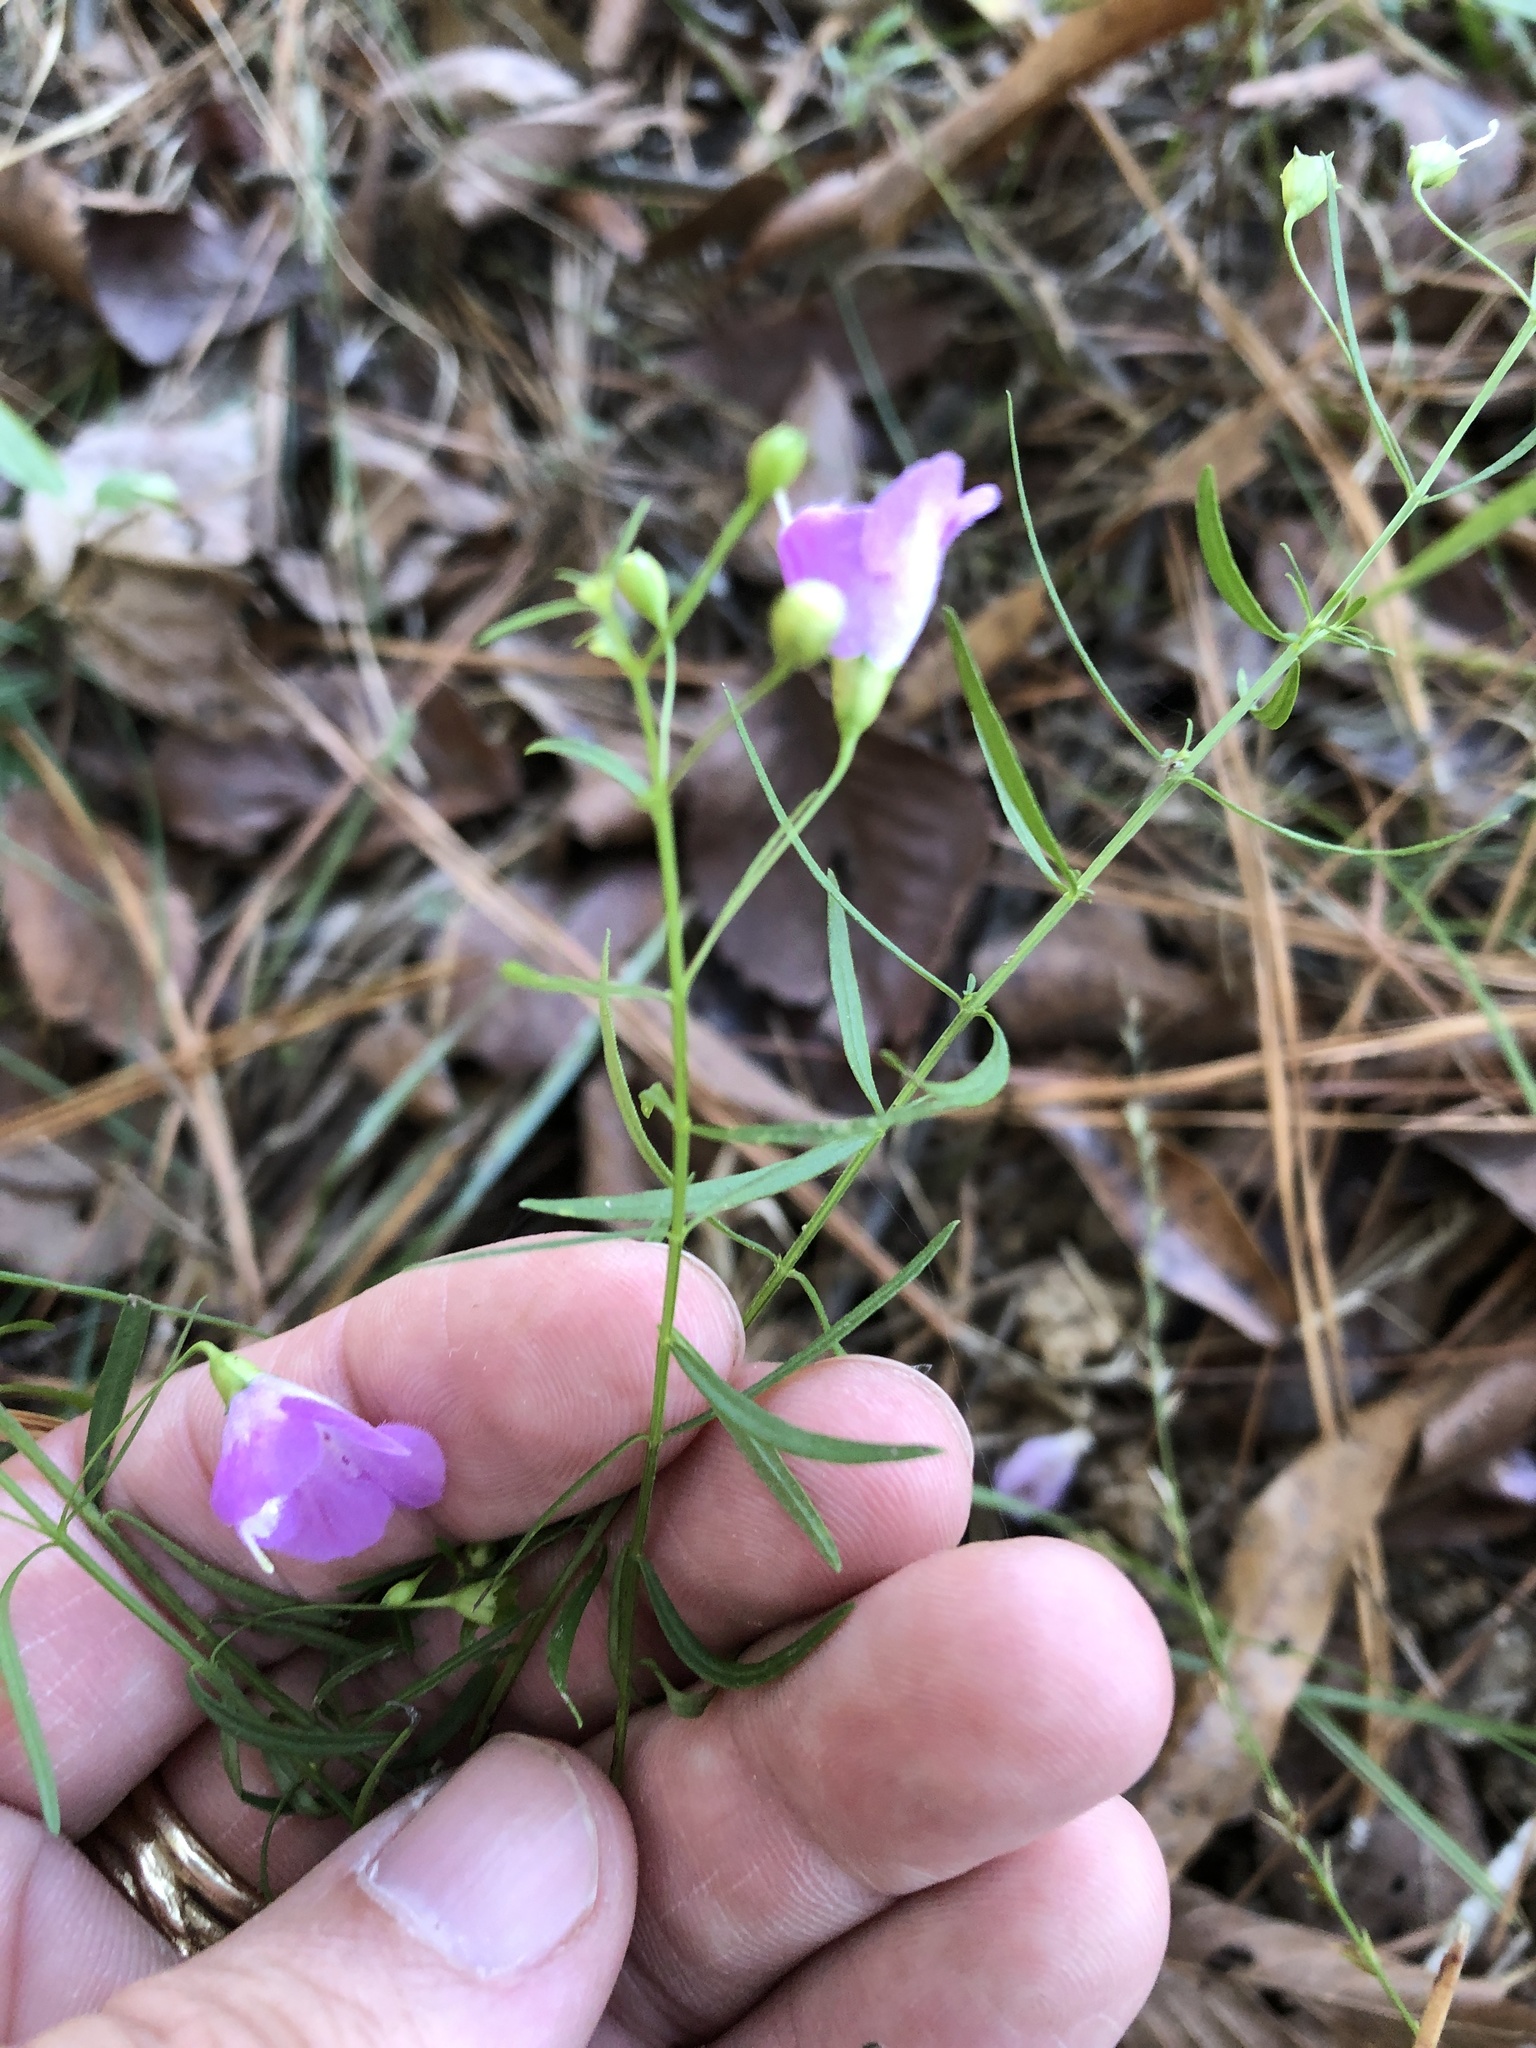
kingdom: Plantae
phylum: Tracheophyta
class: Magnoliopsida
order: Lamiales
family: Orobanchaceae
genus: Agalinis
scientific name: Agalinis tenuifolia
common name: Slender agalinis
